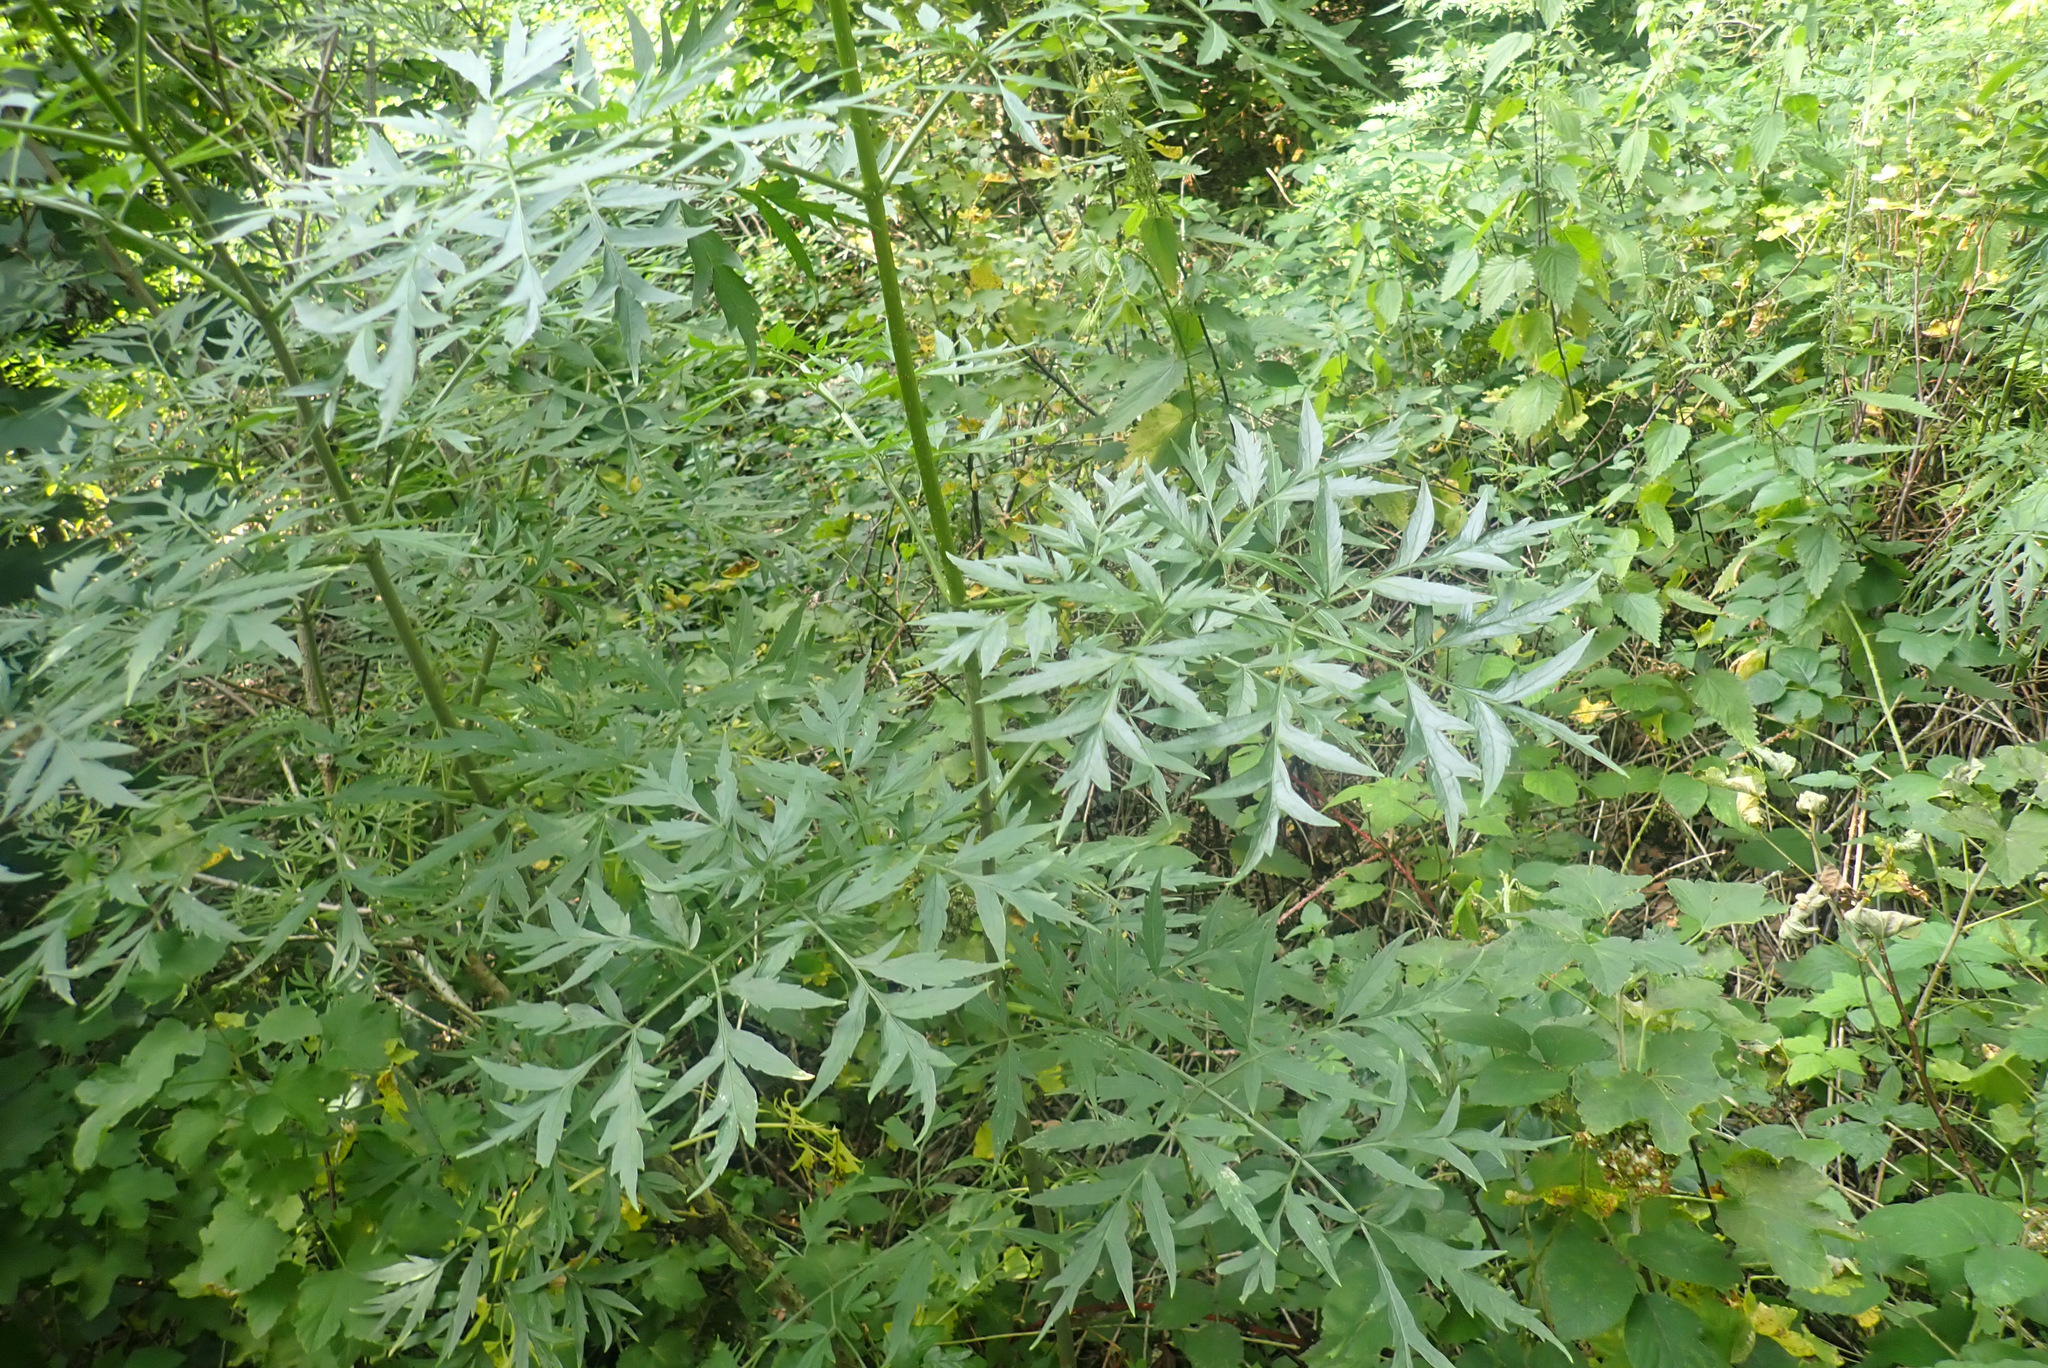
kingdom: Plantae
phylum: Tracheophyta
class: Magnoliopsida
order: Dipsacales
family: Viburnaceae
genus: Sambucus
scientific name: Sambucus nigra
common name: Elder
